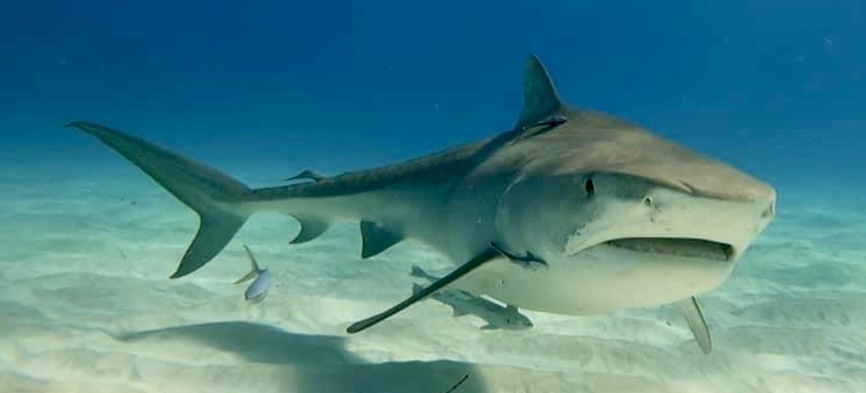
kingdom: Animalia
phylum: Chordata
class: Elasmobranchii
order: Carcharhiniformes
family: Carcharhinidae
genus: Galeocerdo
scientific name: Galeocerdo cuvier
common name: Tiger shark
